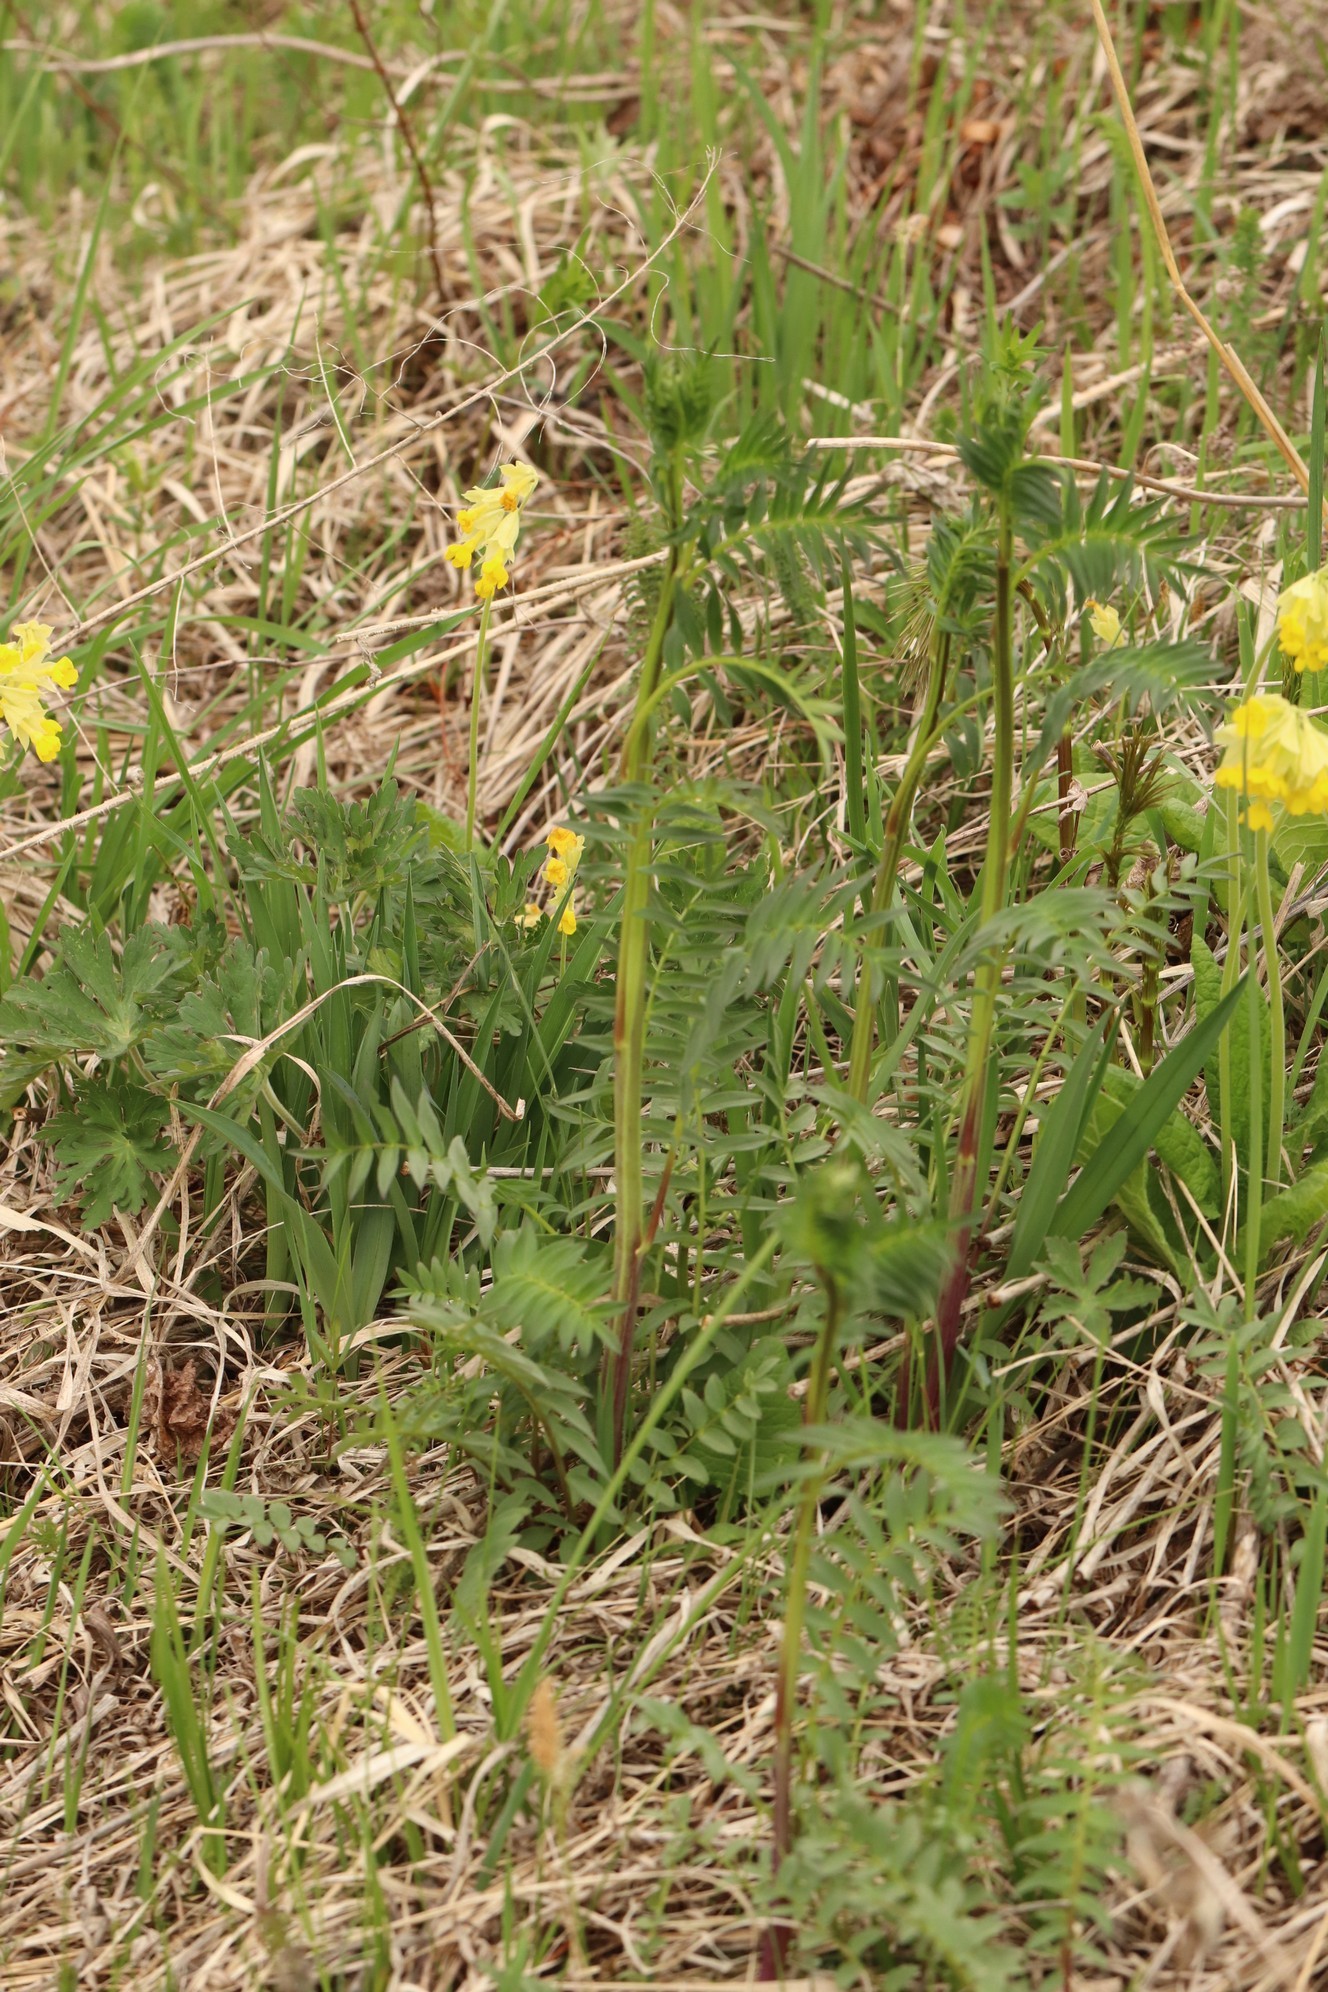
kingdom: Plantae
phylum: Tracheophyta
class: Magnoliopsida
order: Ericales
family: Polemoniaceae
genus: Polemonium
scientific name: Polemonium caeruleum
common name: Jacob's-ladder
